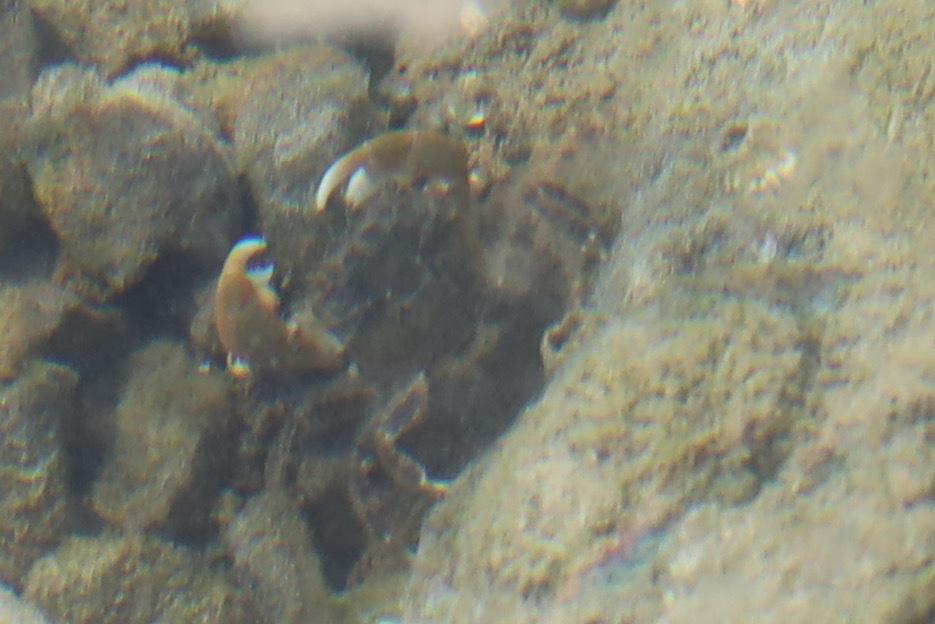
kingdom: Animalia
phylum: Arthropoda
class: Malacostraca
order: Decapoda
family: Varunidae
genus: Hemigrapsus
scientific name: Hemigrapsus oregonensis
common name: Yellow shore crab
